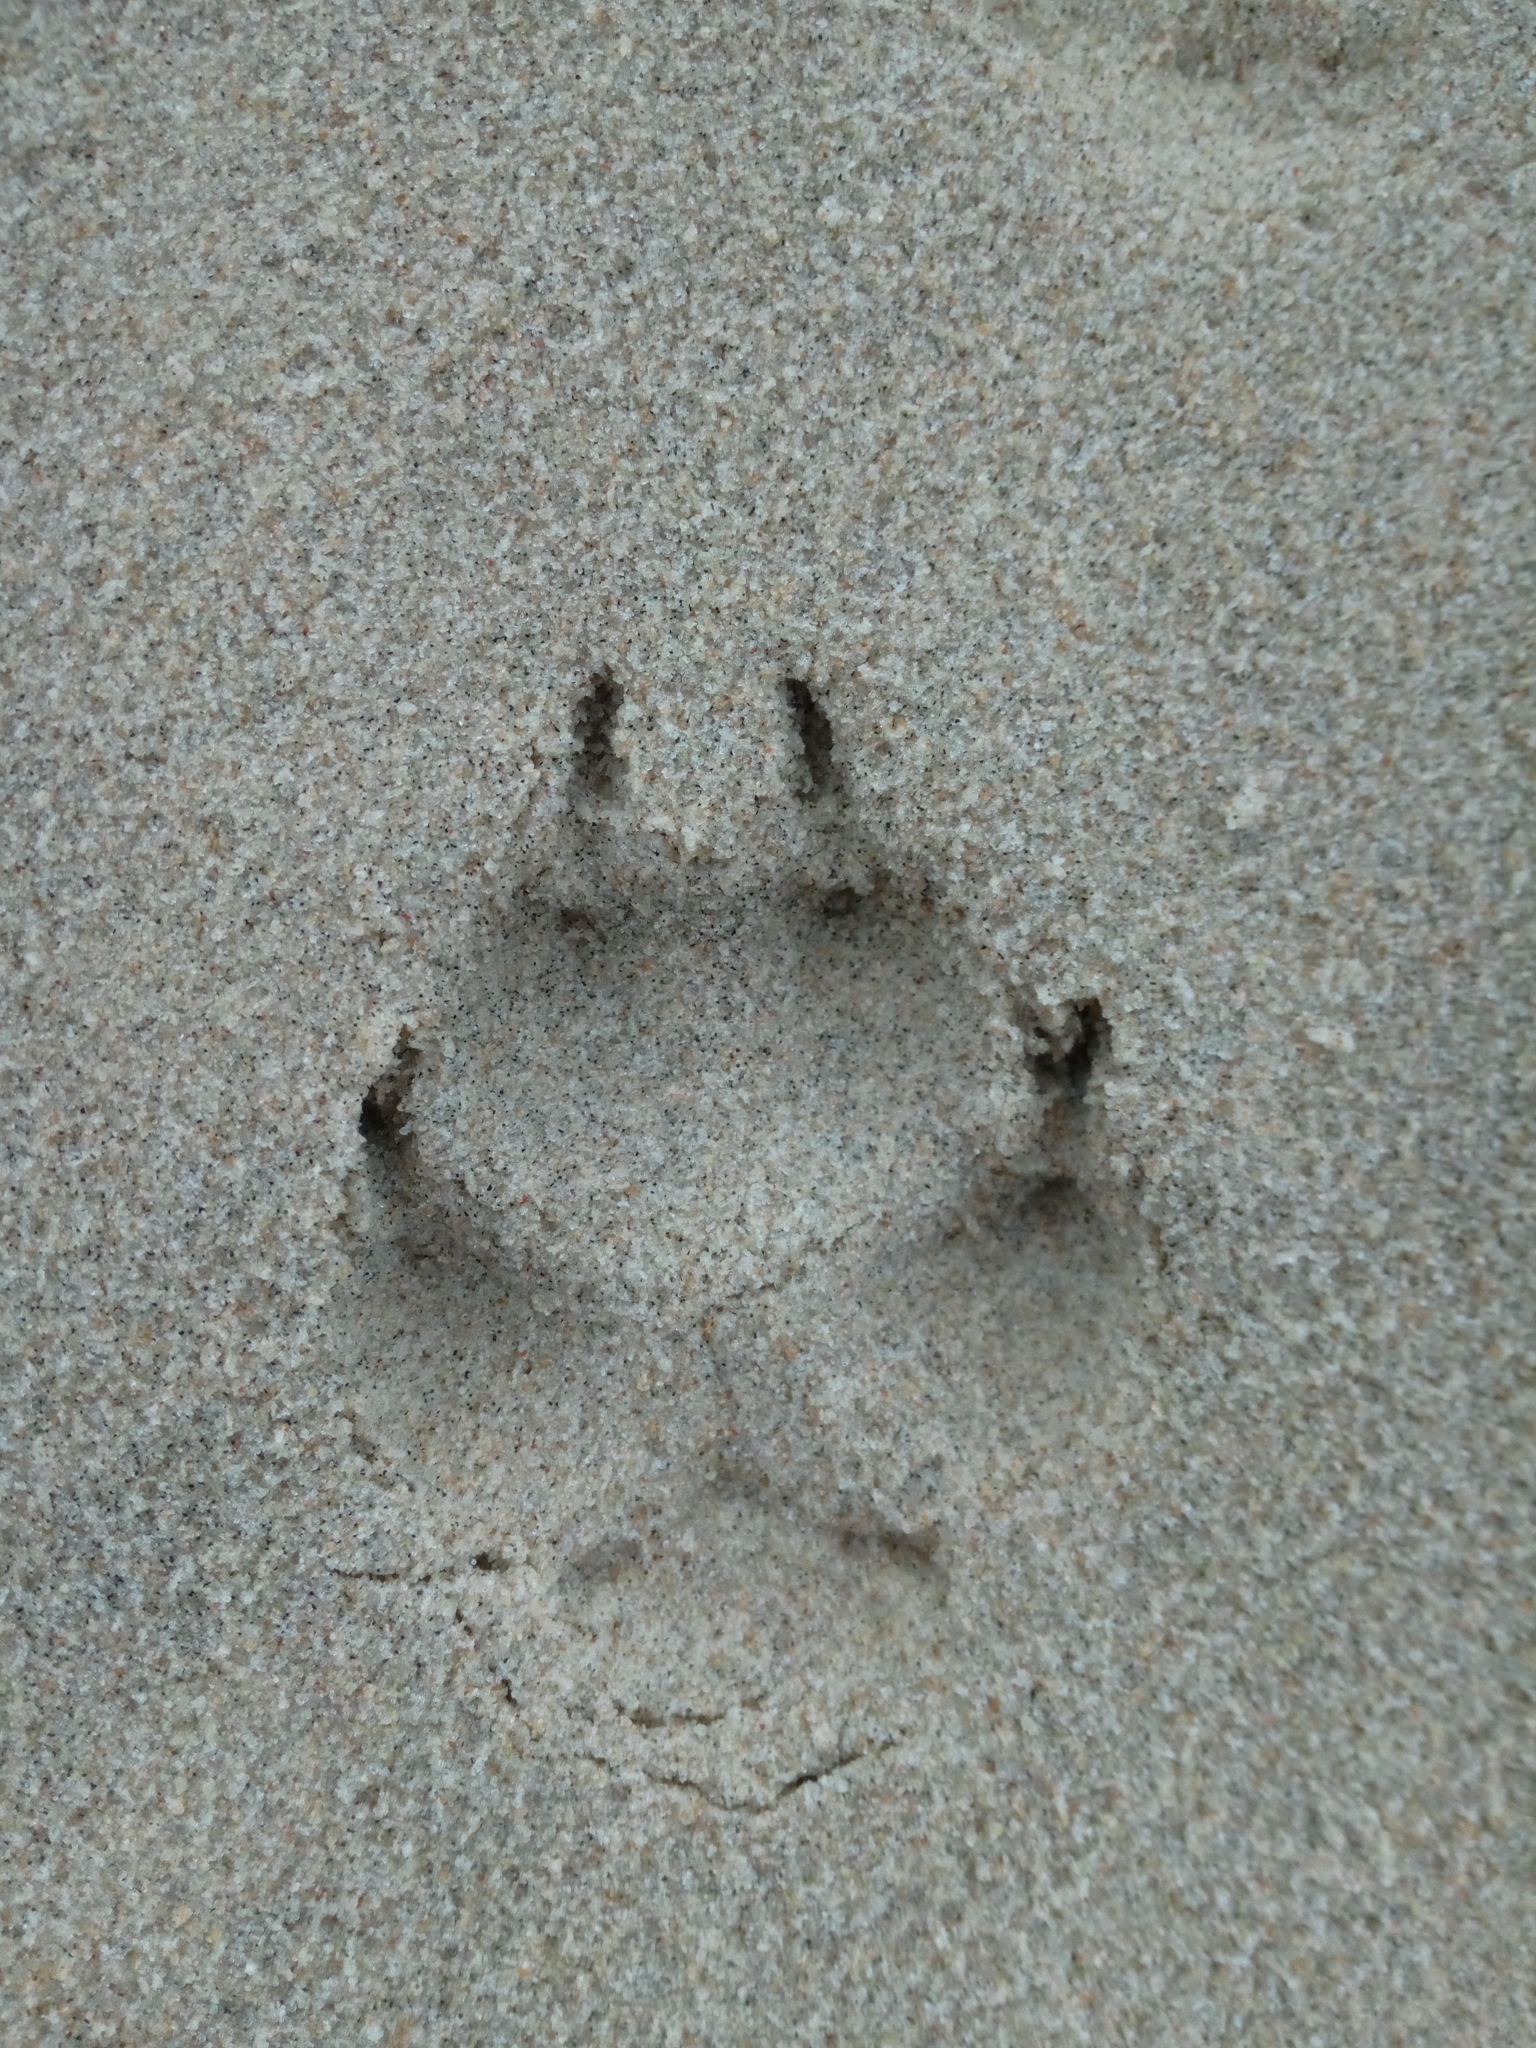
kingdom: Animalia
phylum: Chordata
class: Mammalia
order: Carnivora
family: Canidae
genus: Vulpes
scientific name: Vulpes vulpes
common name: Red fox
